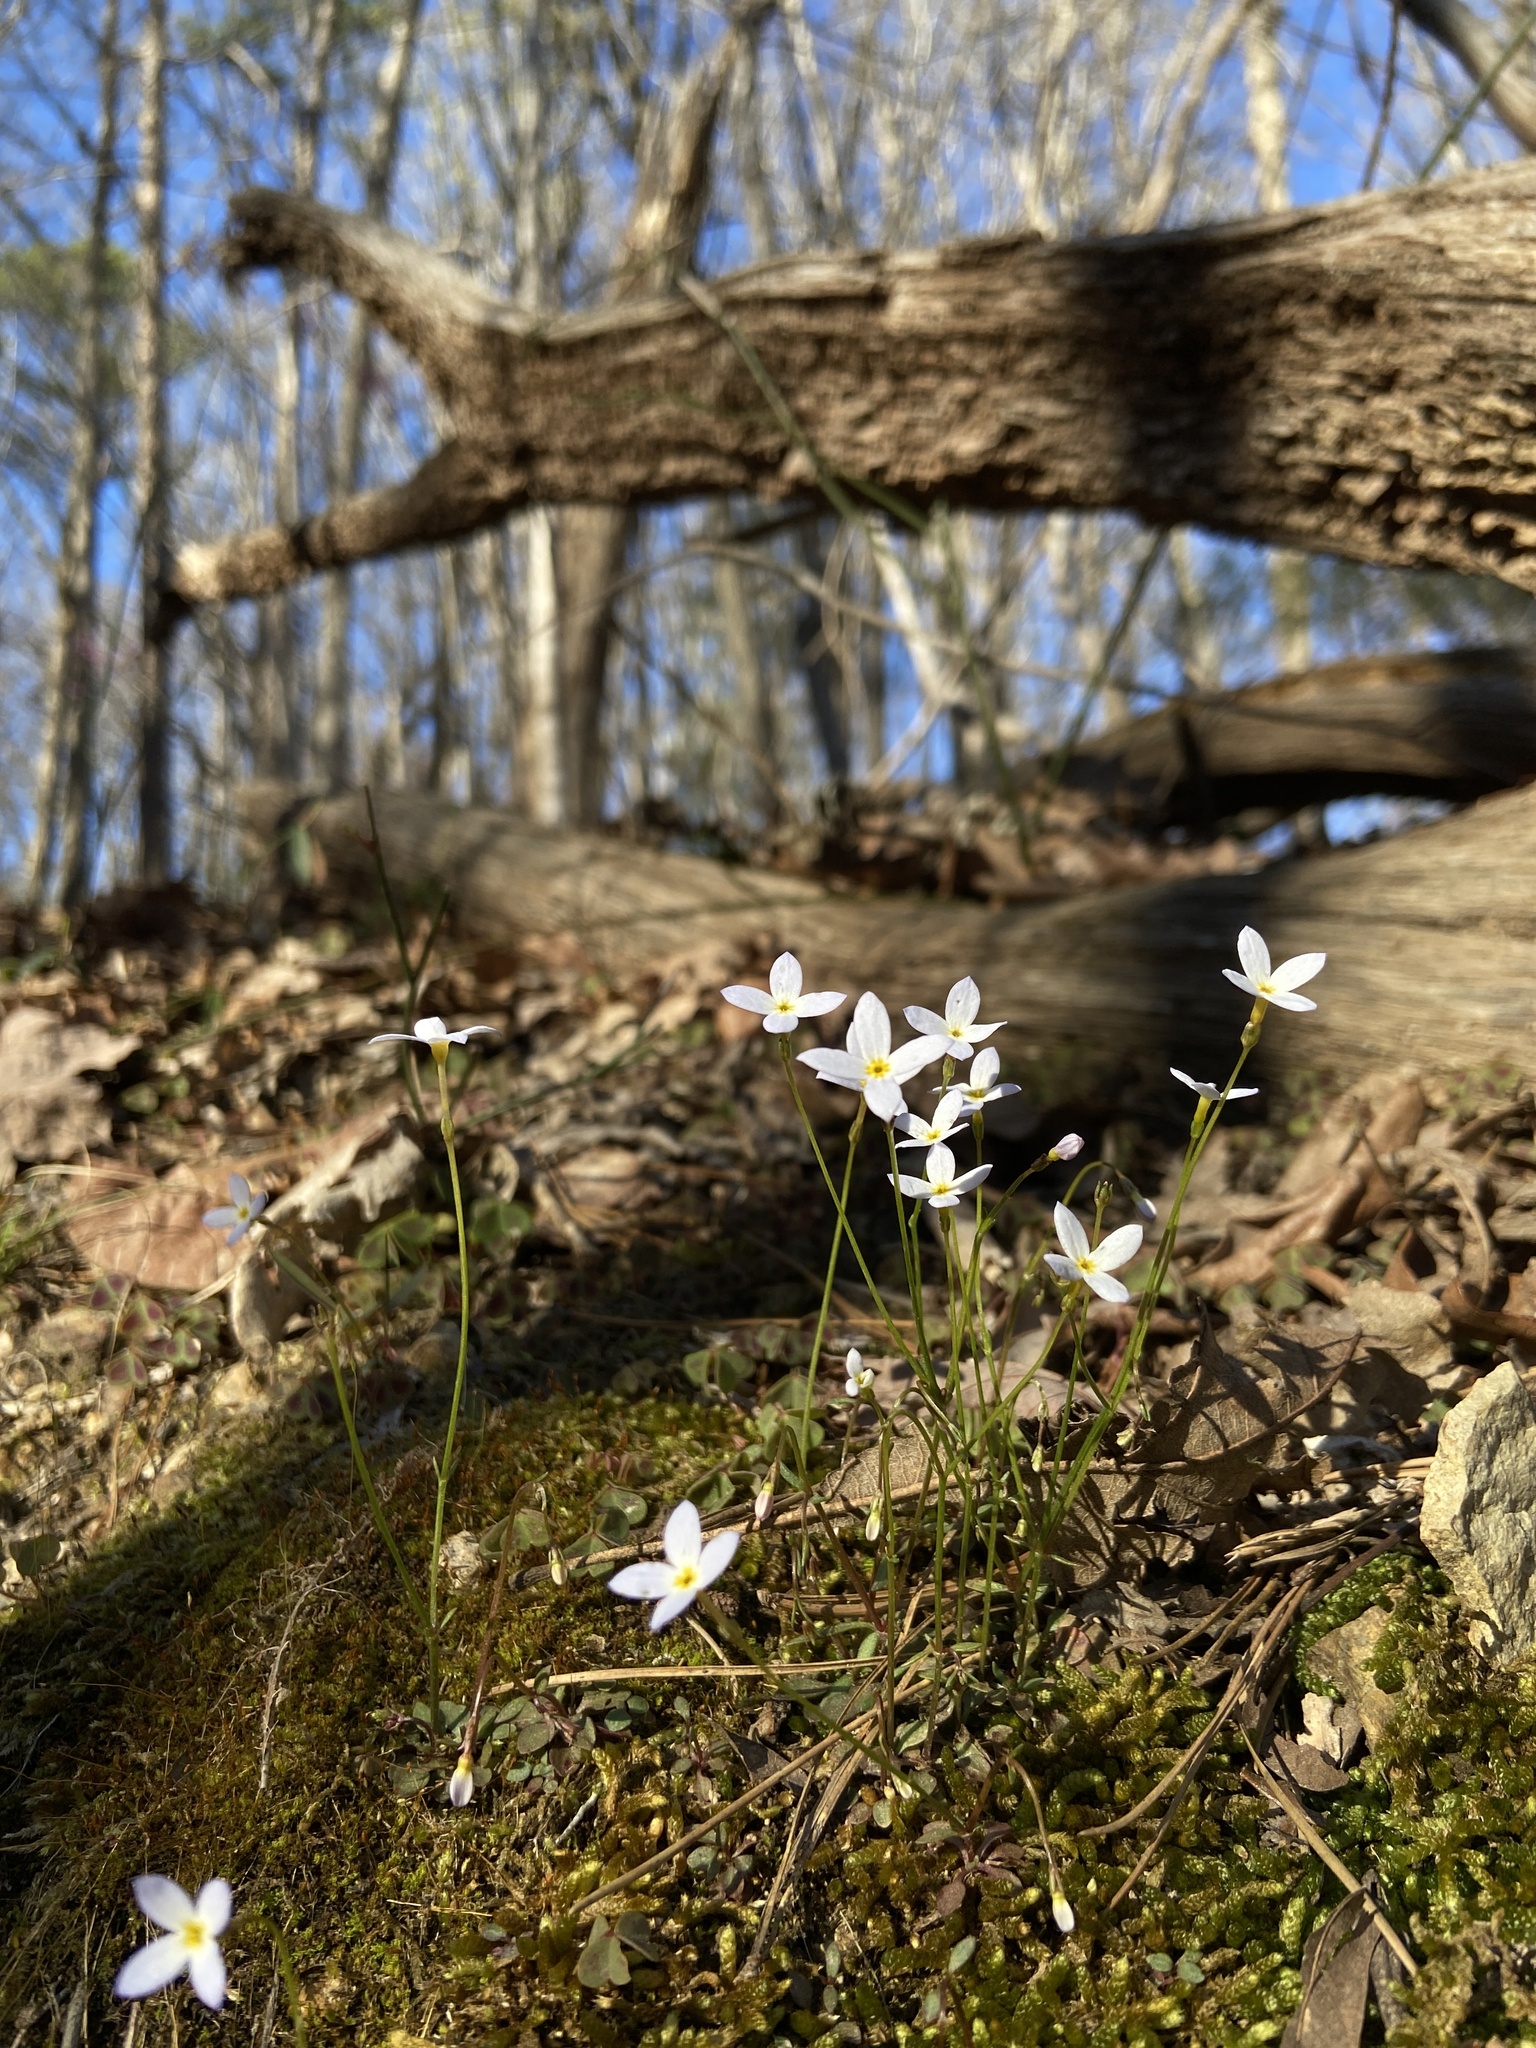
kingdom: Plantae
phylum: Tracheophyta
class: Magnoliopsida
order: Gentianales
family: Rubiaceae
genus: Houstonia
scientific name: Houstonia caerulea
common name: Bluets
